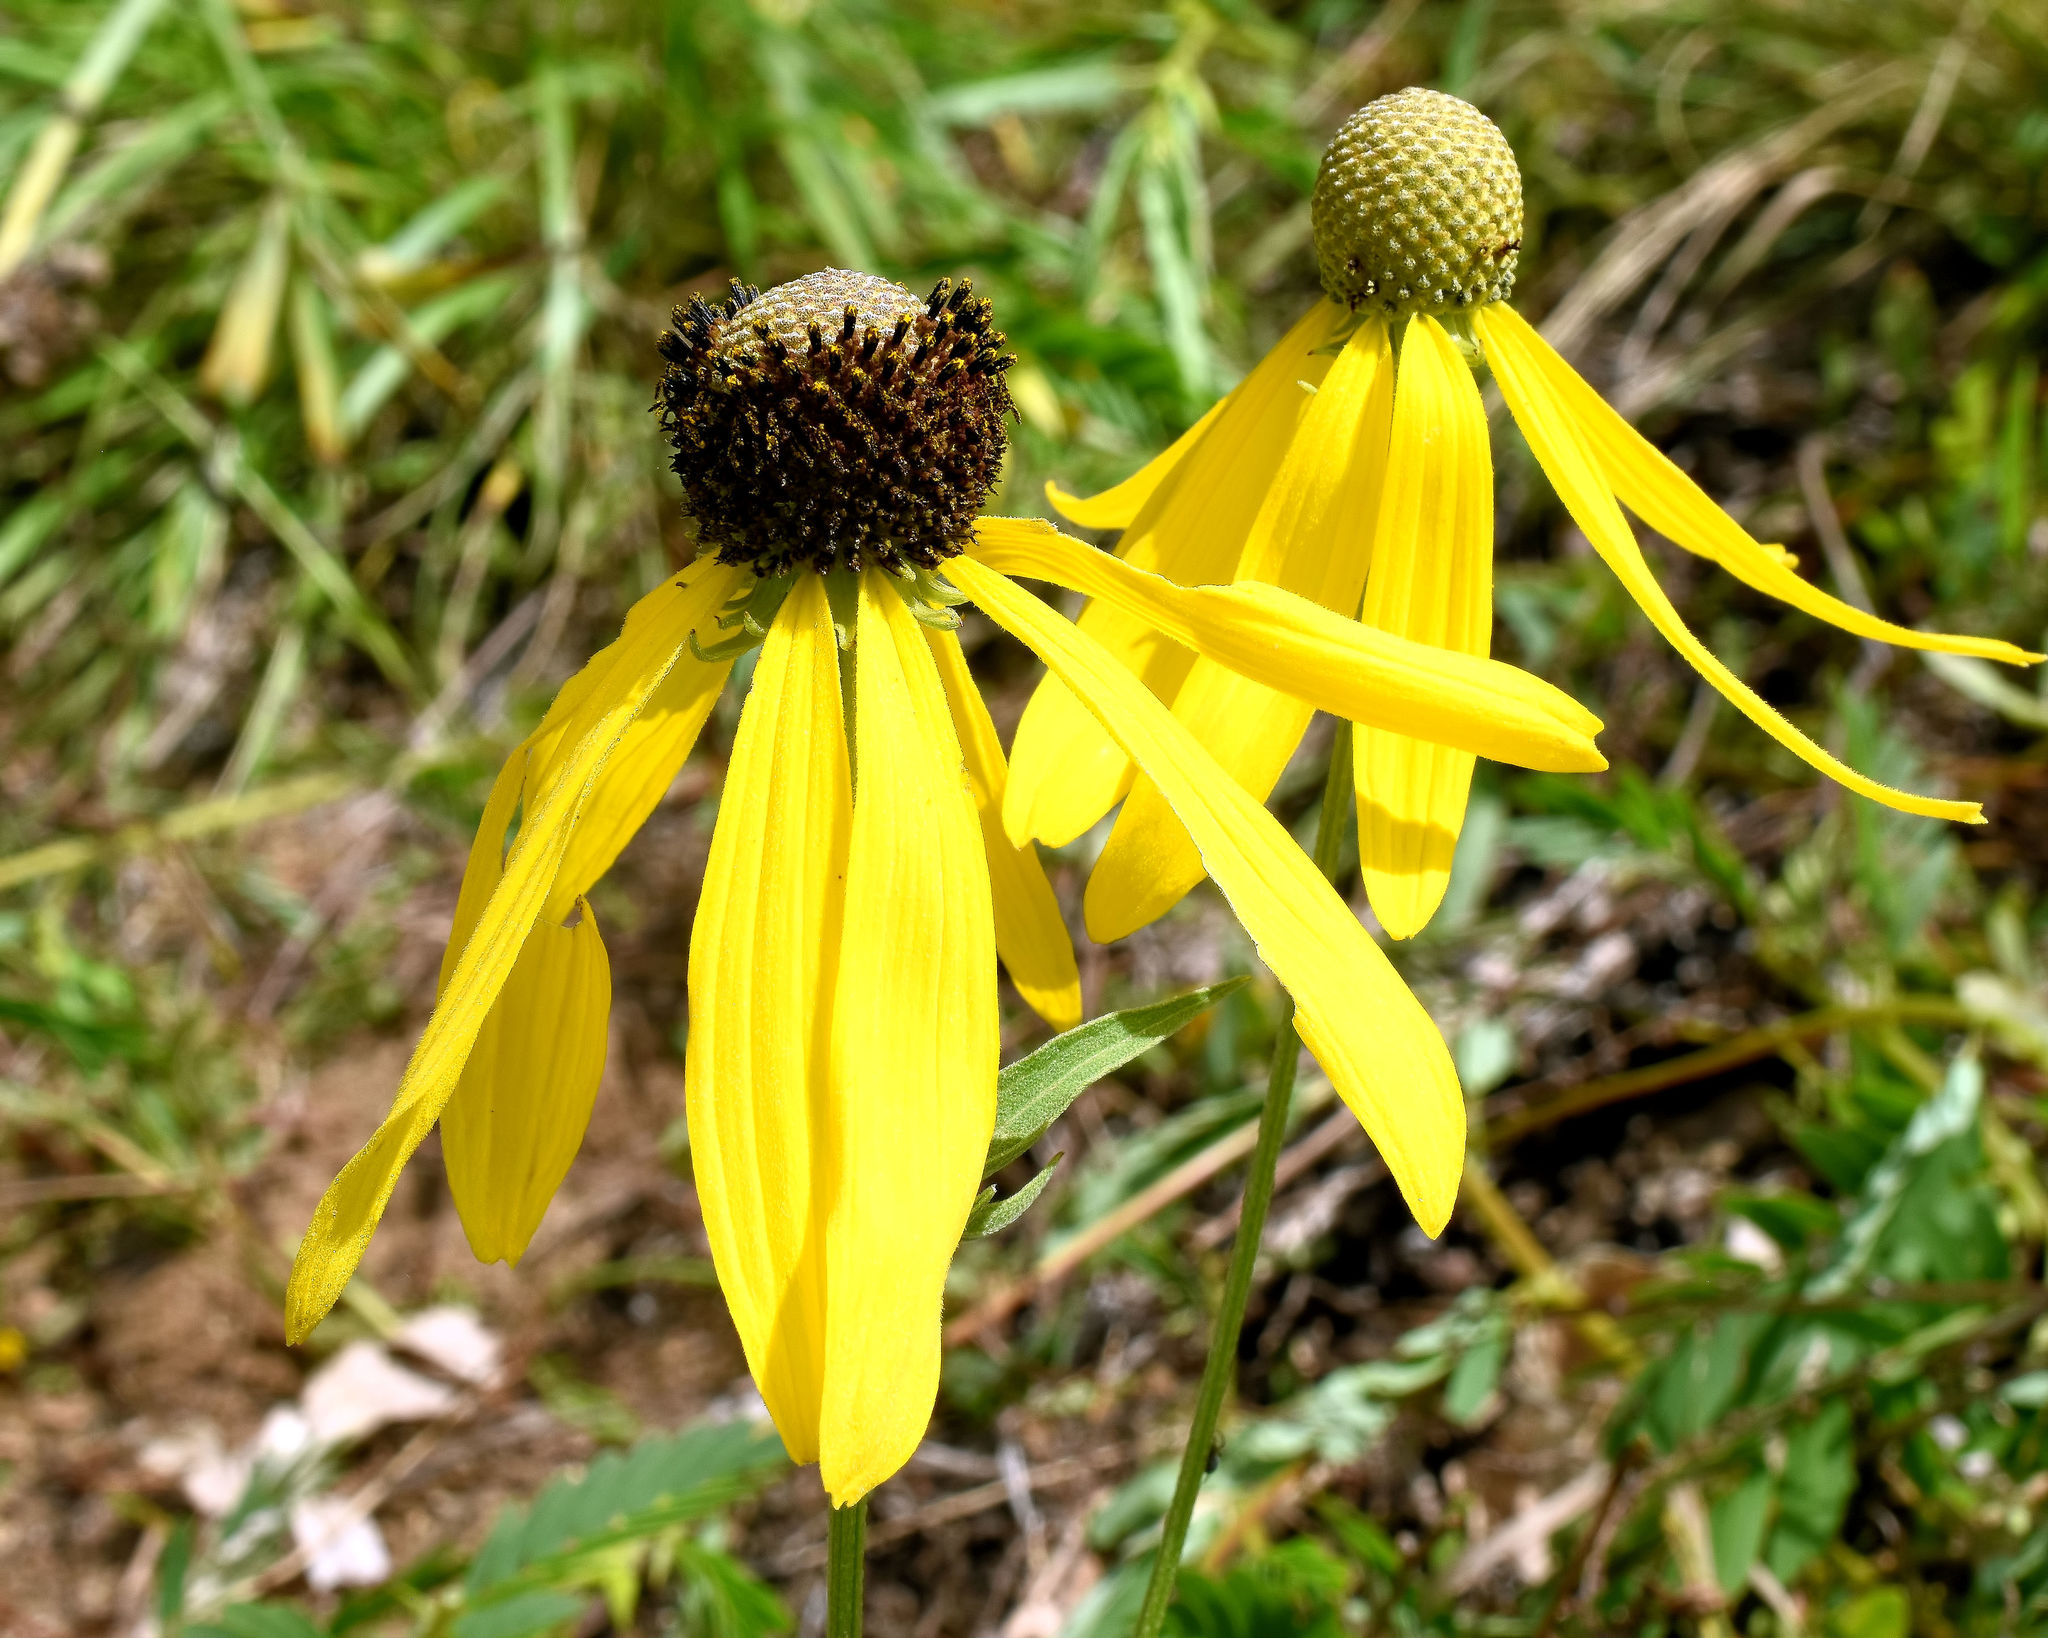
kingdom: Plantae
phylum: Tracheophyta
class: Magnoliopsida
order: Asterales
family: Asteraceae
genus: Ratibida
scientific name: Ratibida pinnata
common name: Drooping prairie-coneflower
